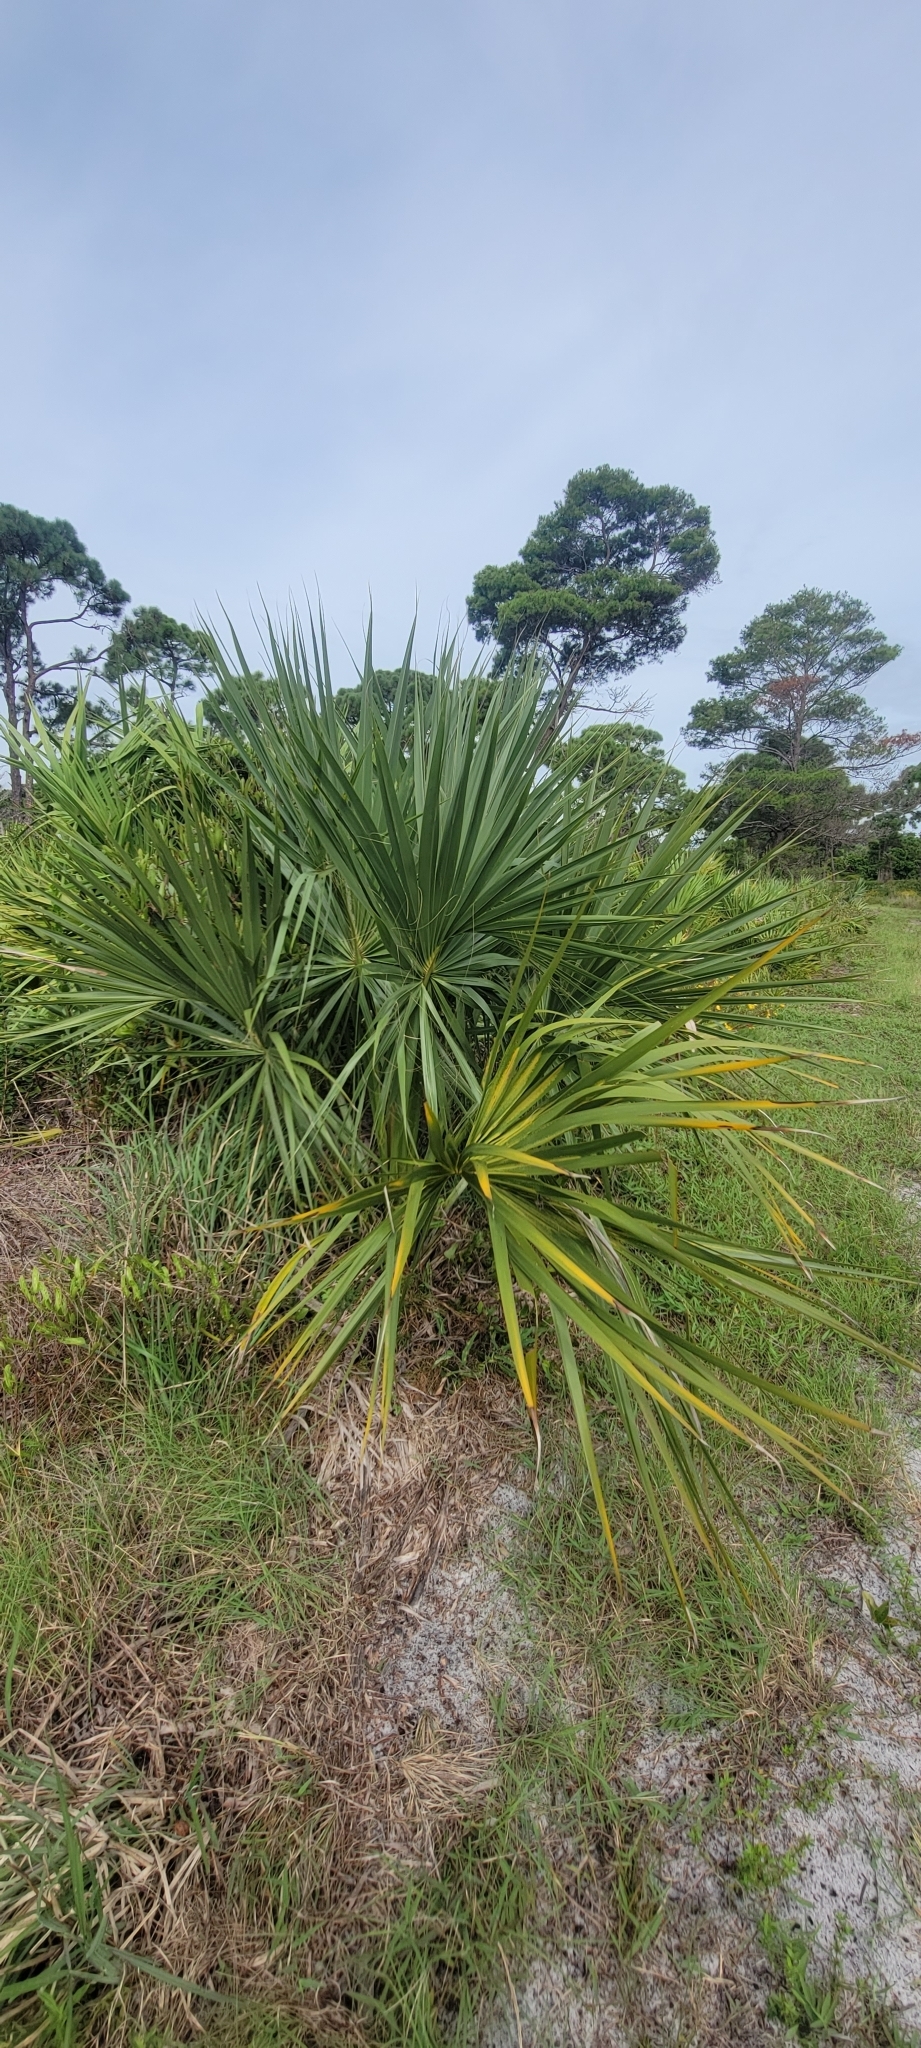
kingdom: Plantae
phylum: Tracheophyta
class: Liliopsida
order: Arecales
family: Arecaceae
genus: Sabal
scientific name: Sabal palmetto
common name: Blue palmetto
